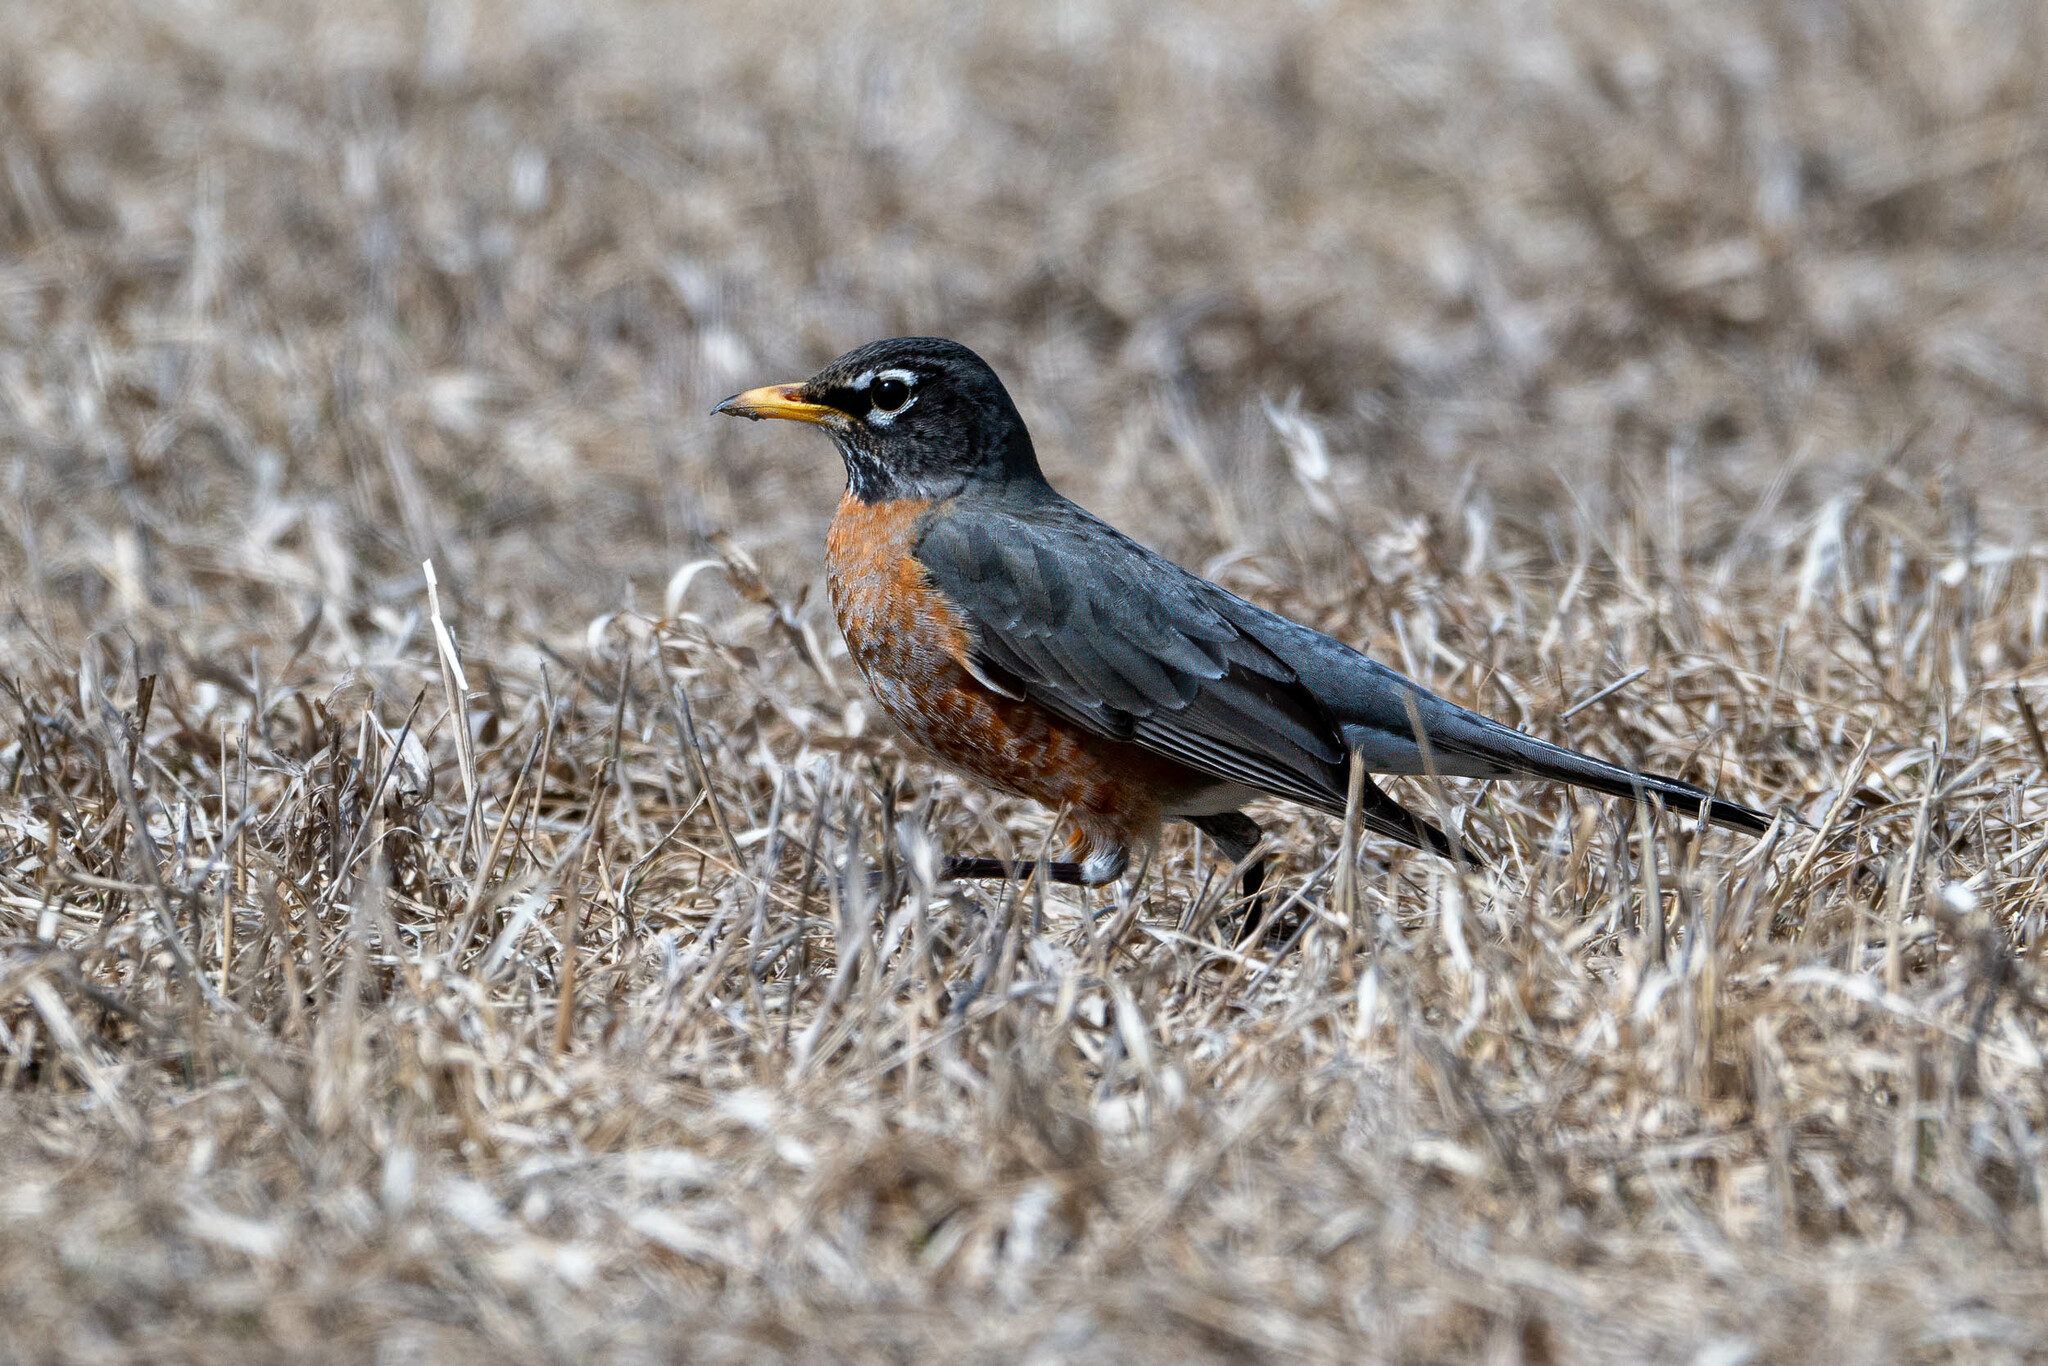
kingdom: Animalia
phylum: Chordata
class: Aves
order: Passeriformes
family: Turdidae
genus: Turdus
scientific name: Turdus migratorius
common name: American robin
